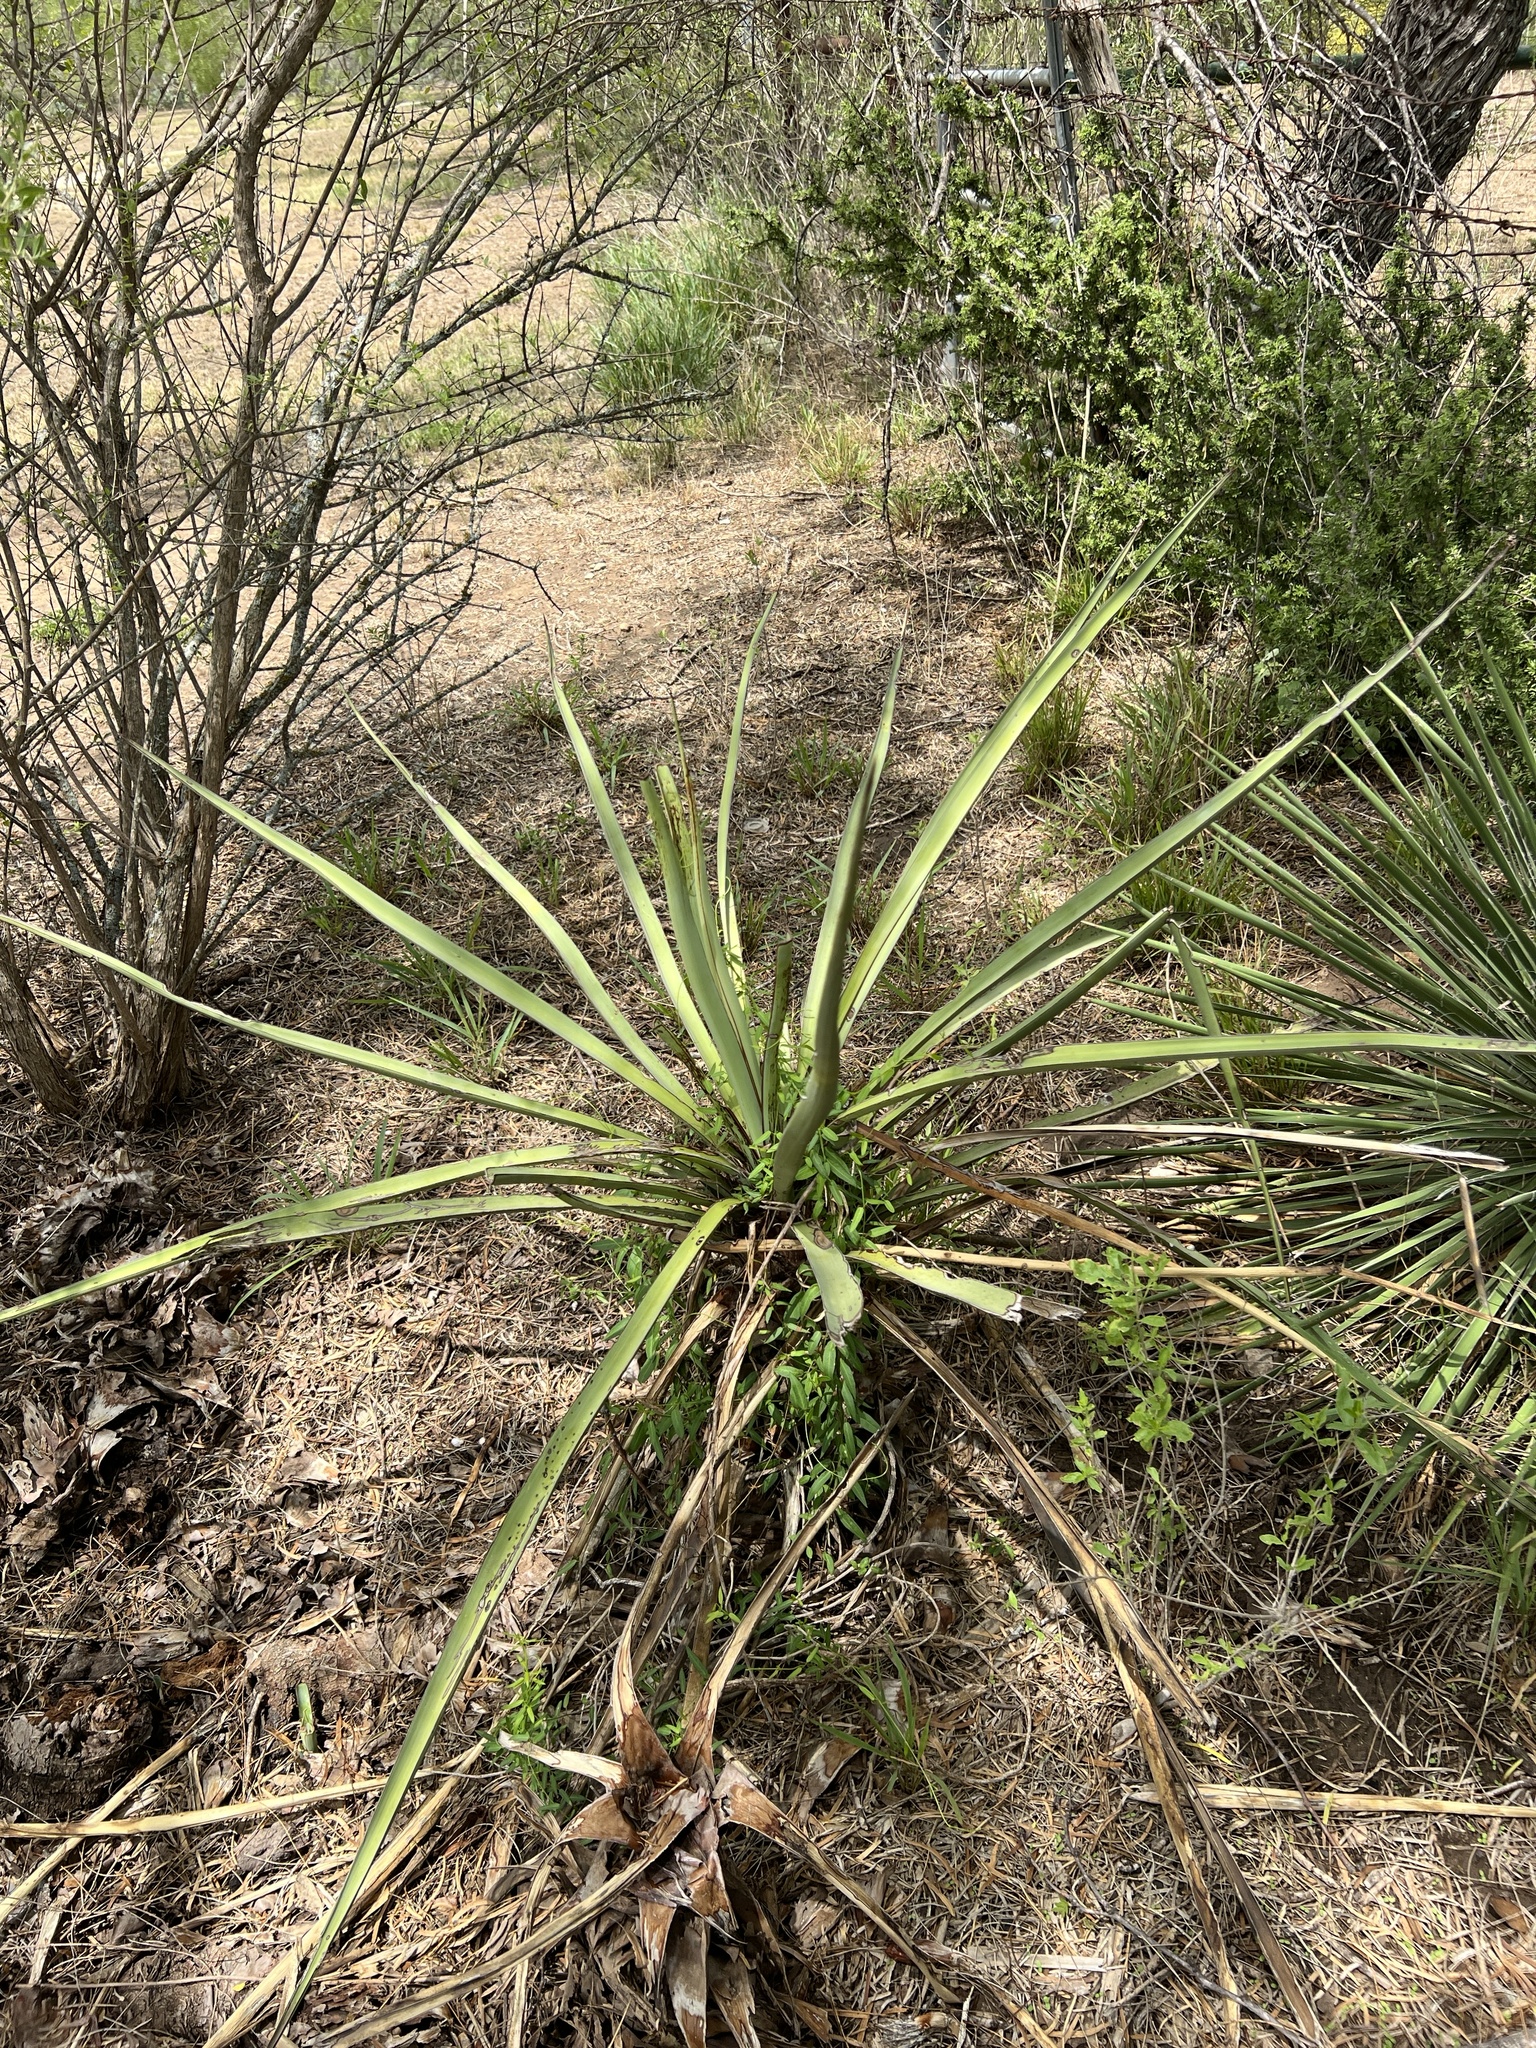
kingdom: Plantae
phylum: Tracheophyta
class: Liliopsida
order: Asparagales
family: Asparagaceae
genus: Yucca
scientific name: Yucca treculiana
